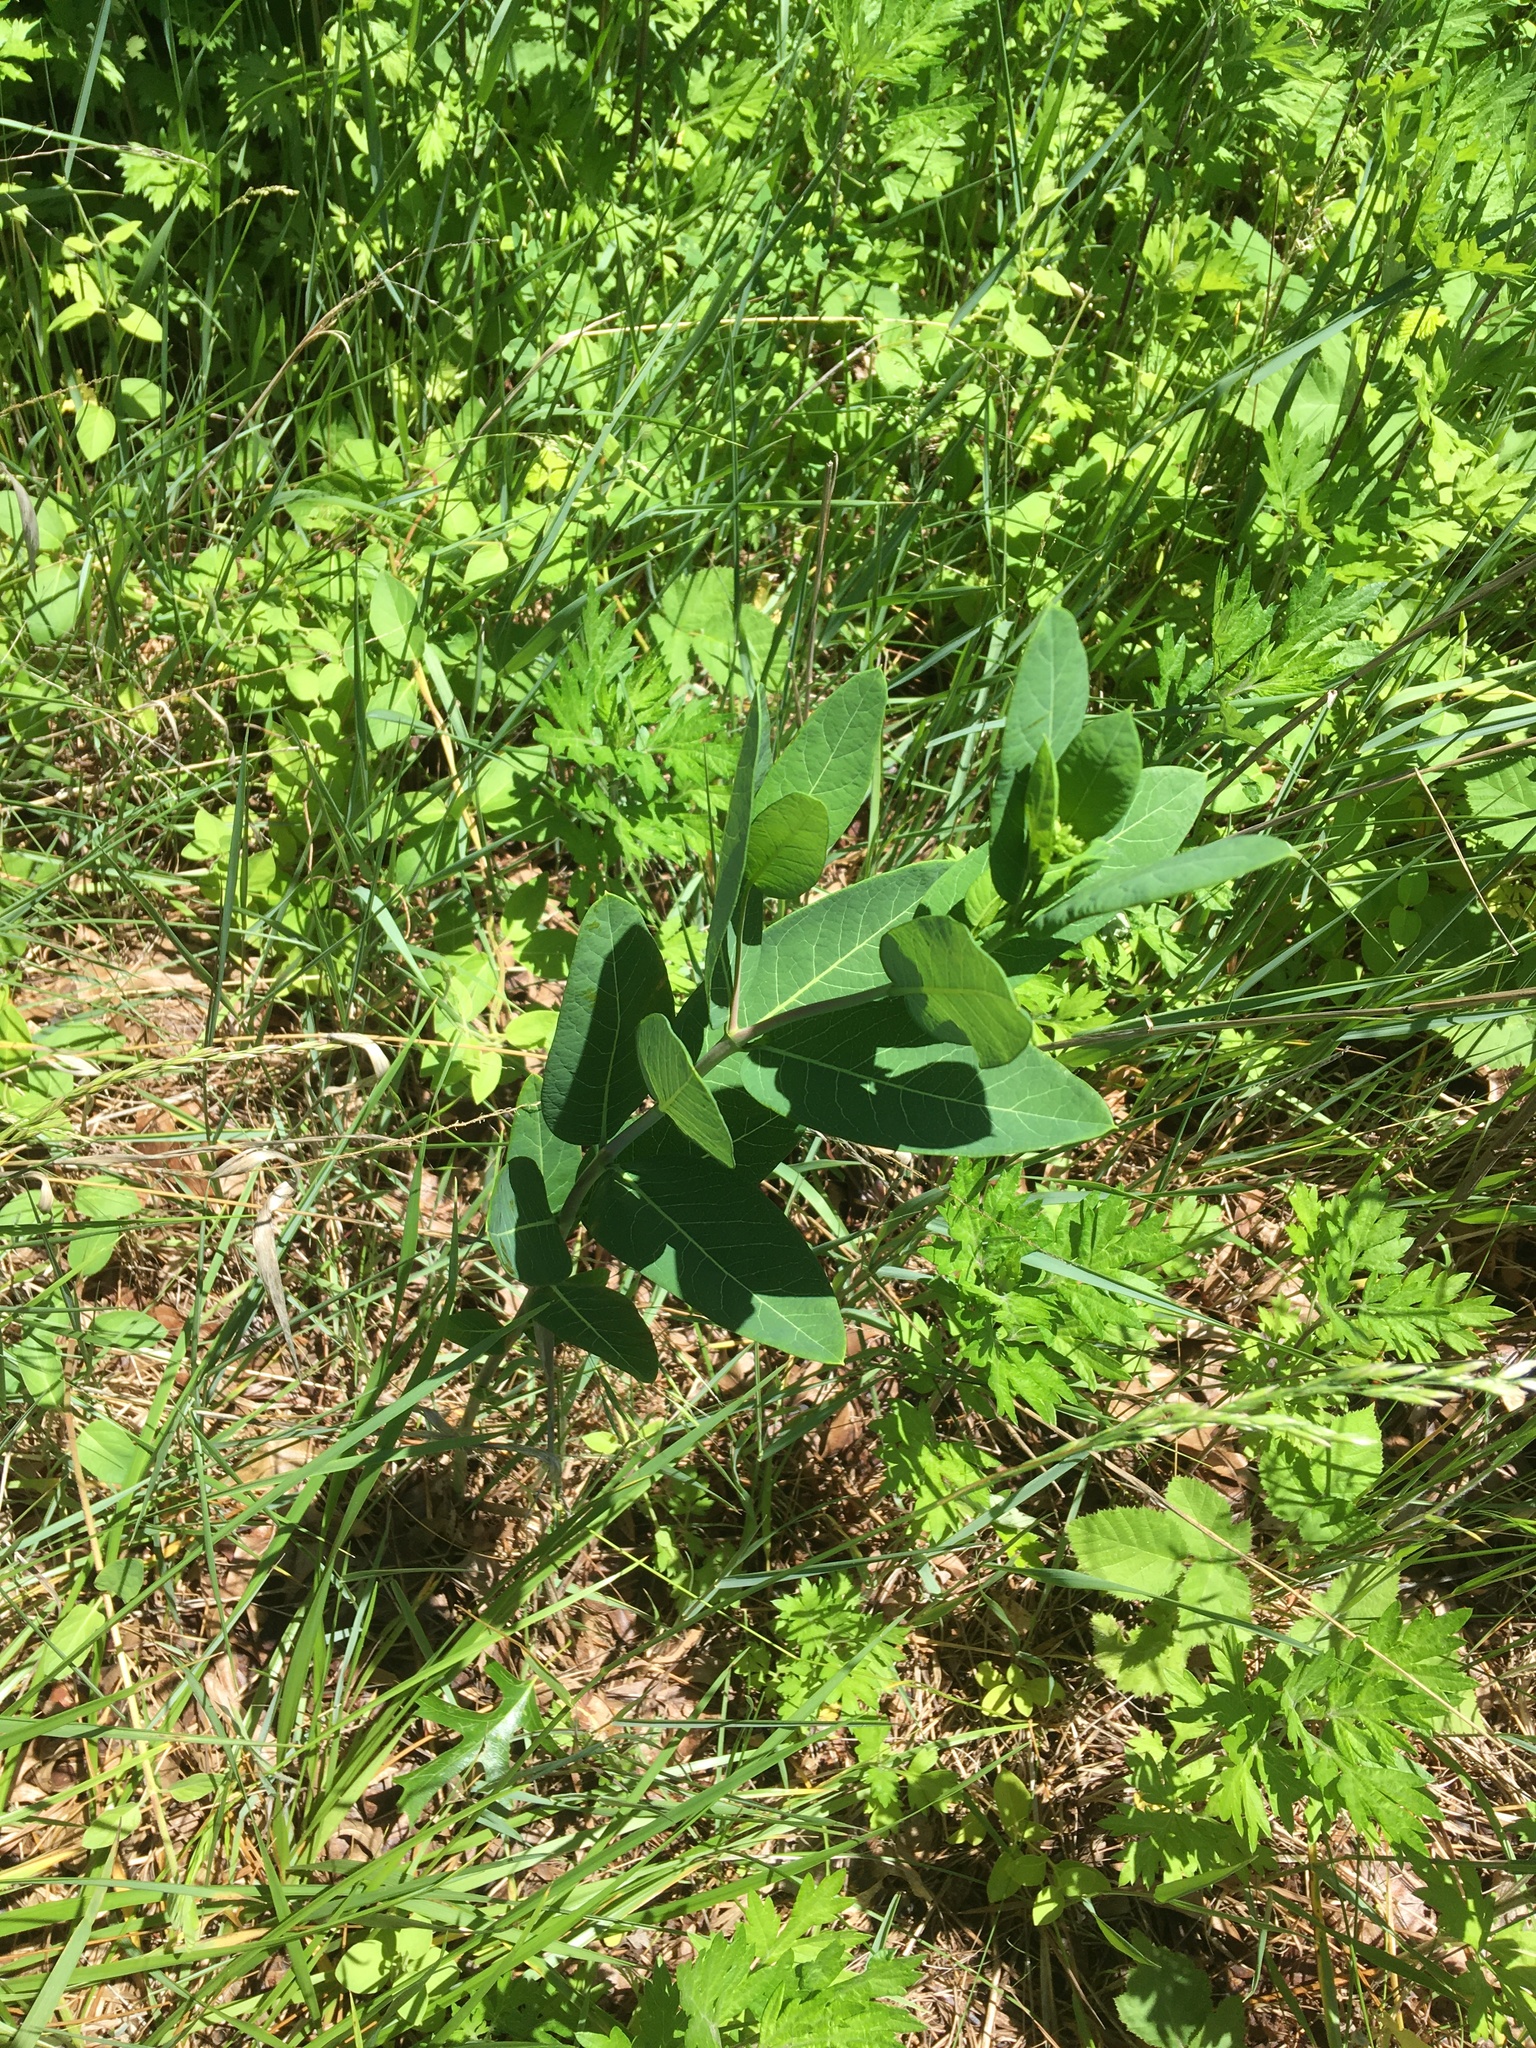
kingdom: Plantae
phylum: Tracheophyta
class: Magnoliopsida
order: Gentianales
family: Apocynaceae
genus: Apocynum
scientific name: Apocynum cannabinum
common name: Hemp dogbane
